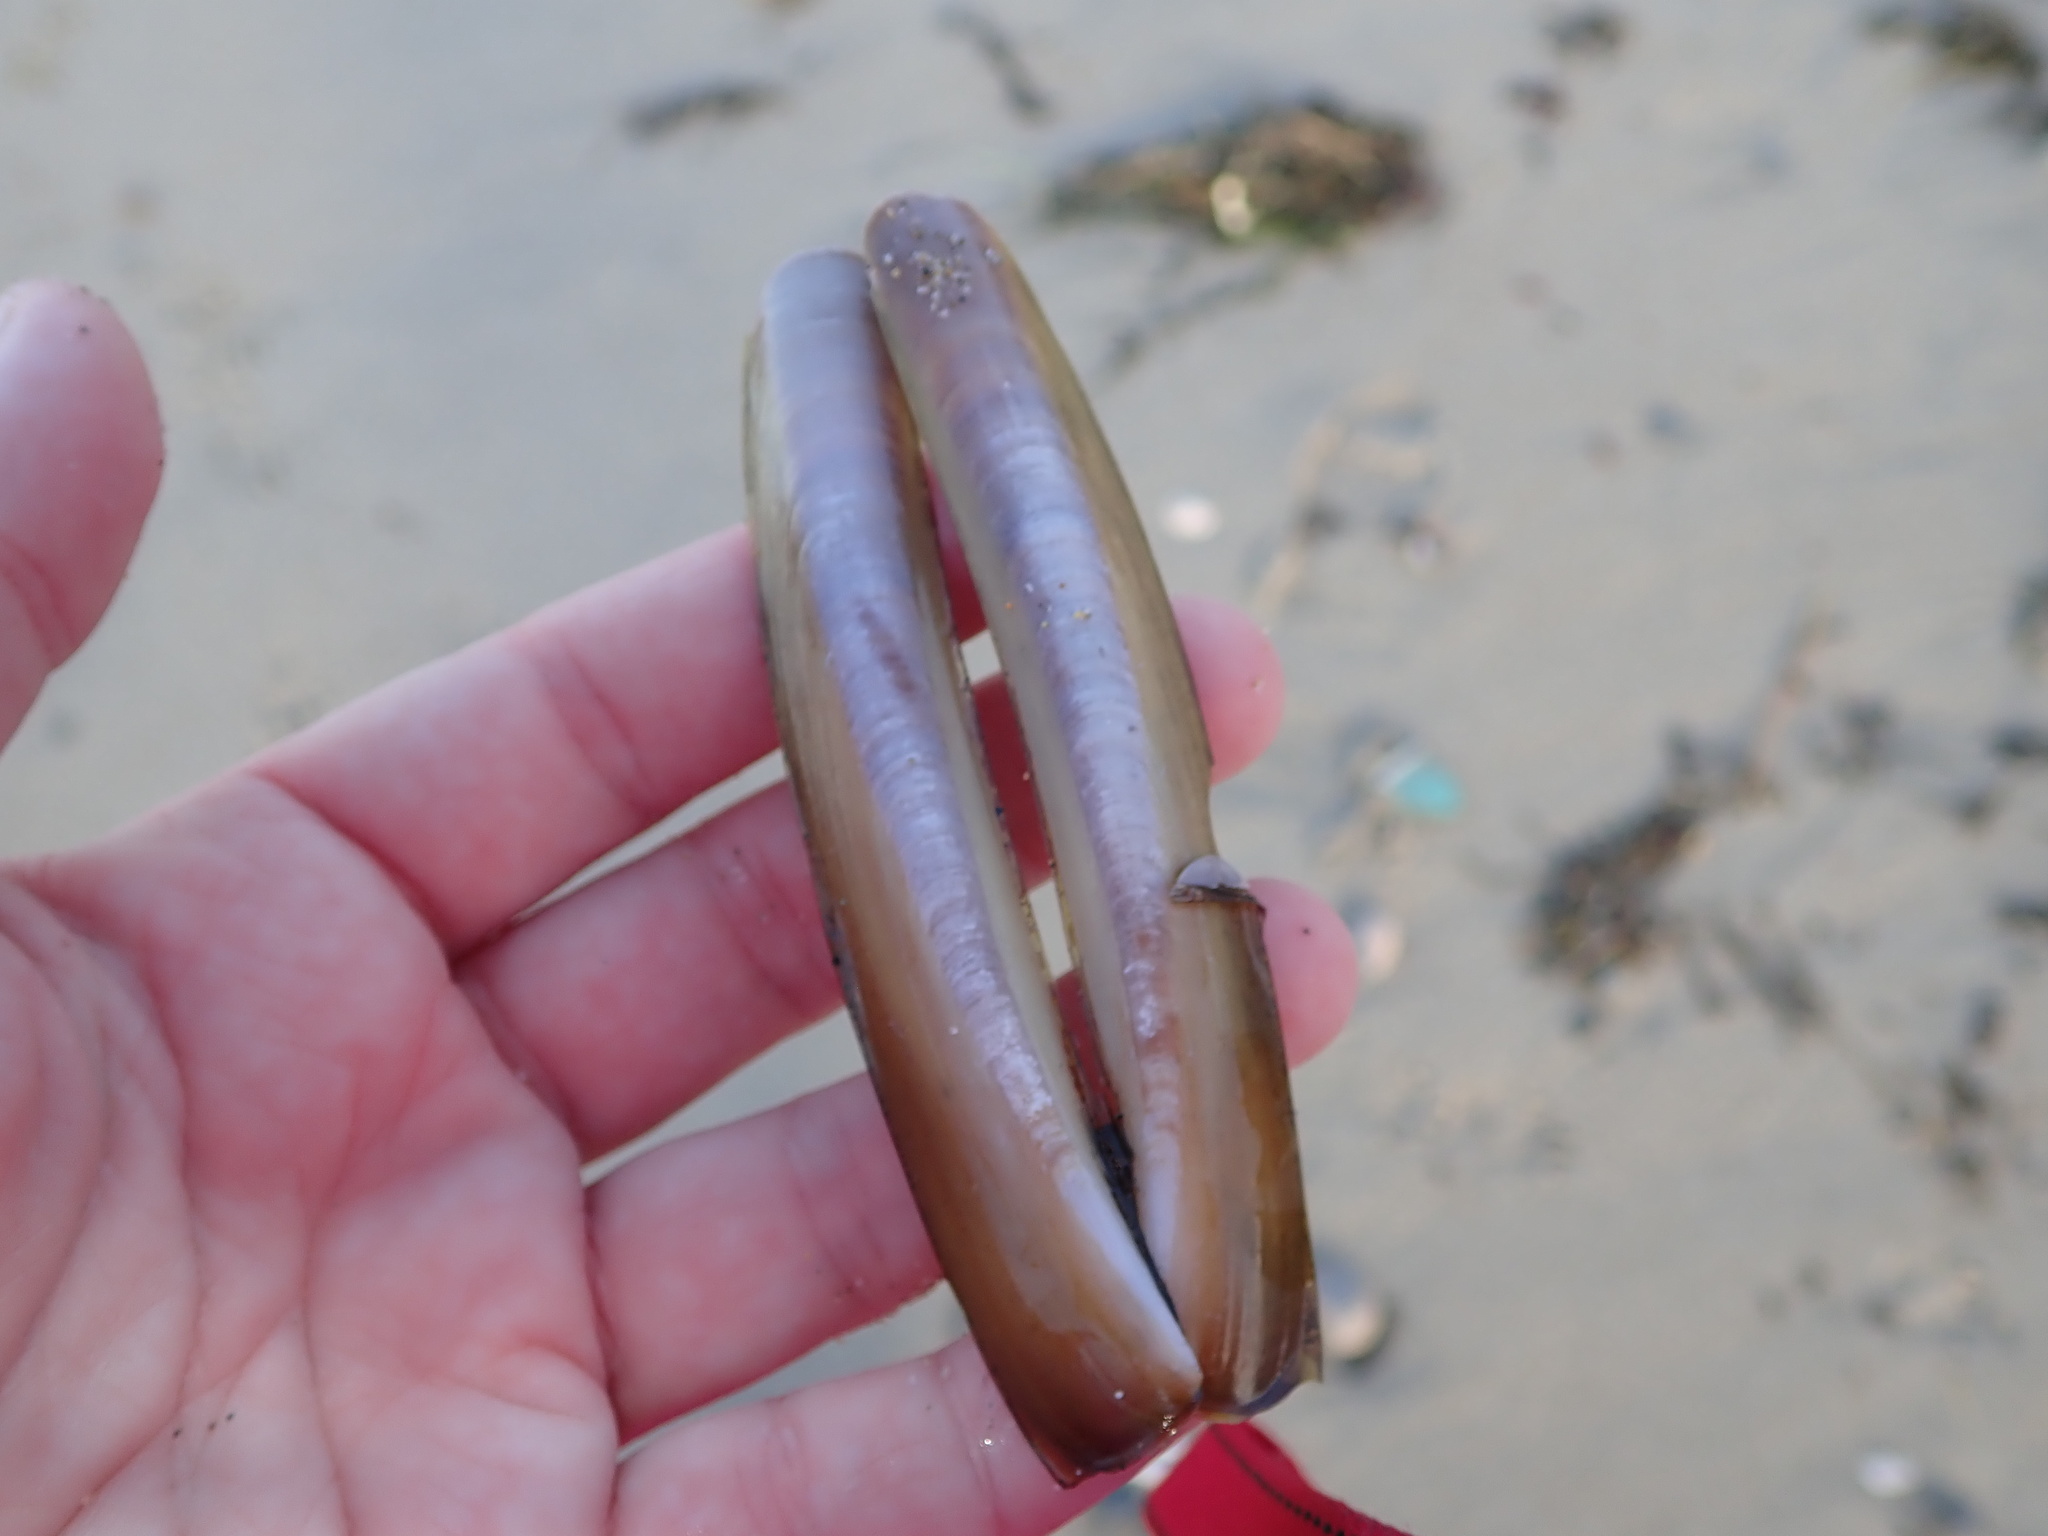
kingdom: Animalia
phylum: Mollusca
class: Bivalvia
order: Adapedonta
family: Pharidae
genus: Ensis
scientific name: Ensis leei
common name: American jack knife clam
